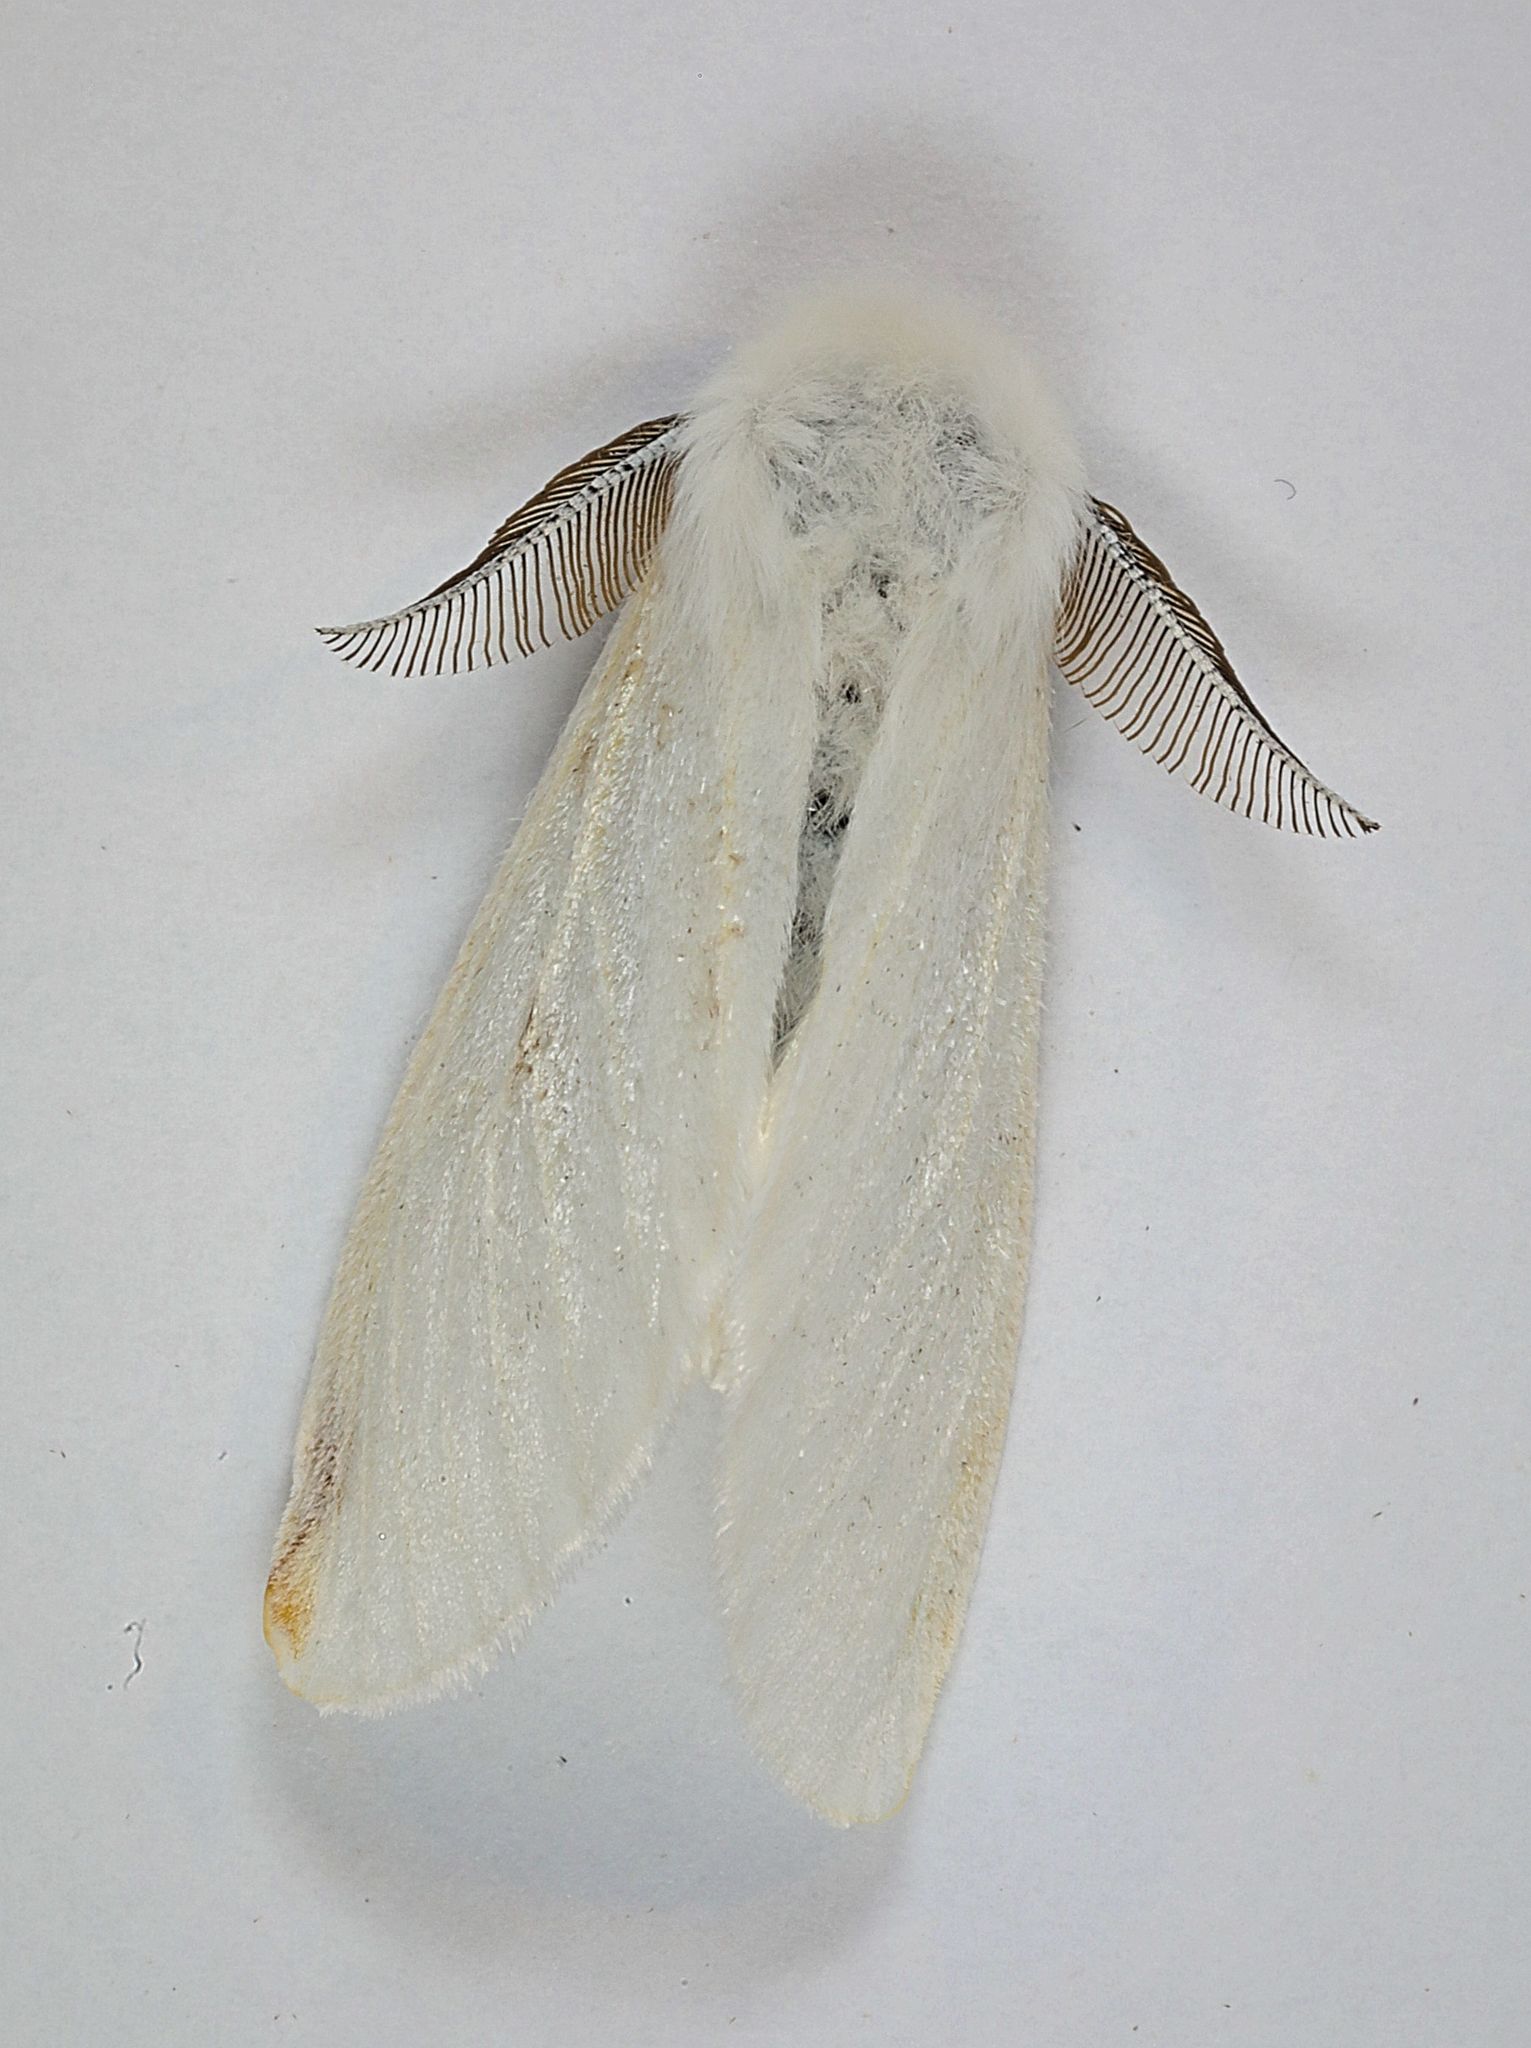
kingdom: Animalia
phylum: Arthropoda
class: Insecta
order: Lepidoptera
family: Erebidae
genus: Leucoma
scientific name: Leucoma salicis
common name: White satin moth
